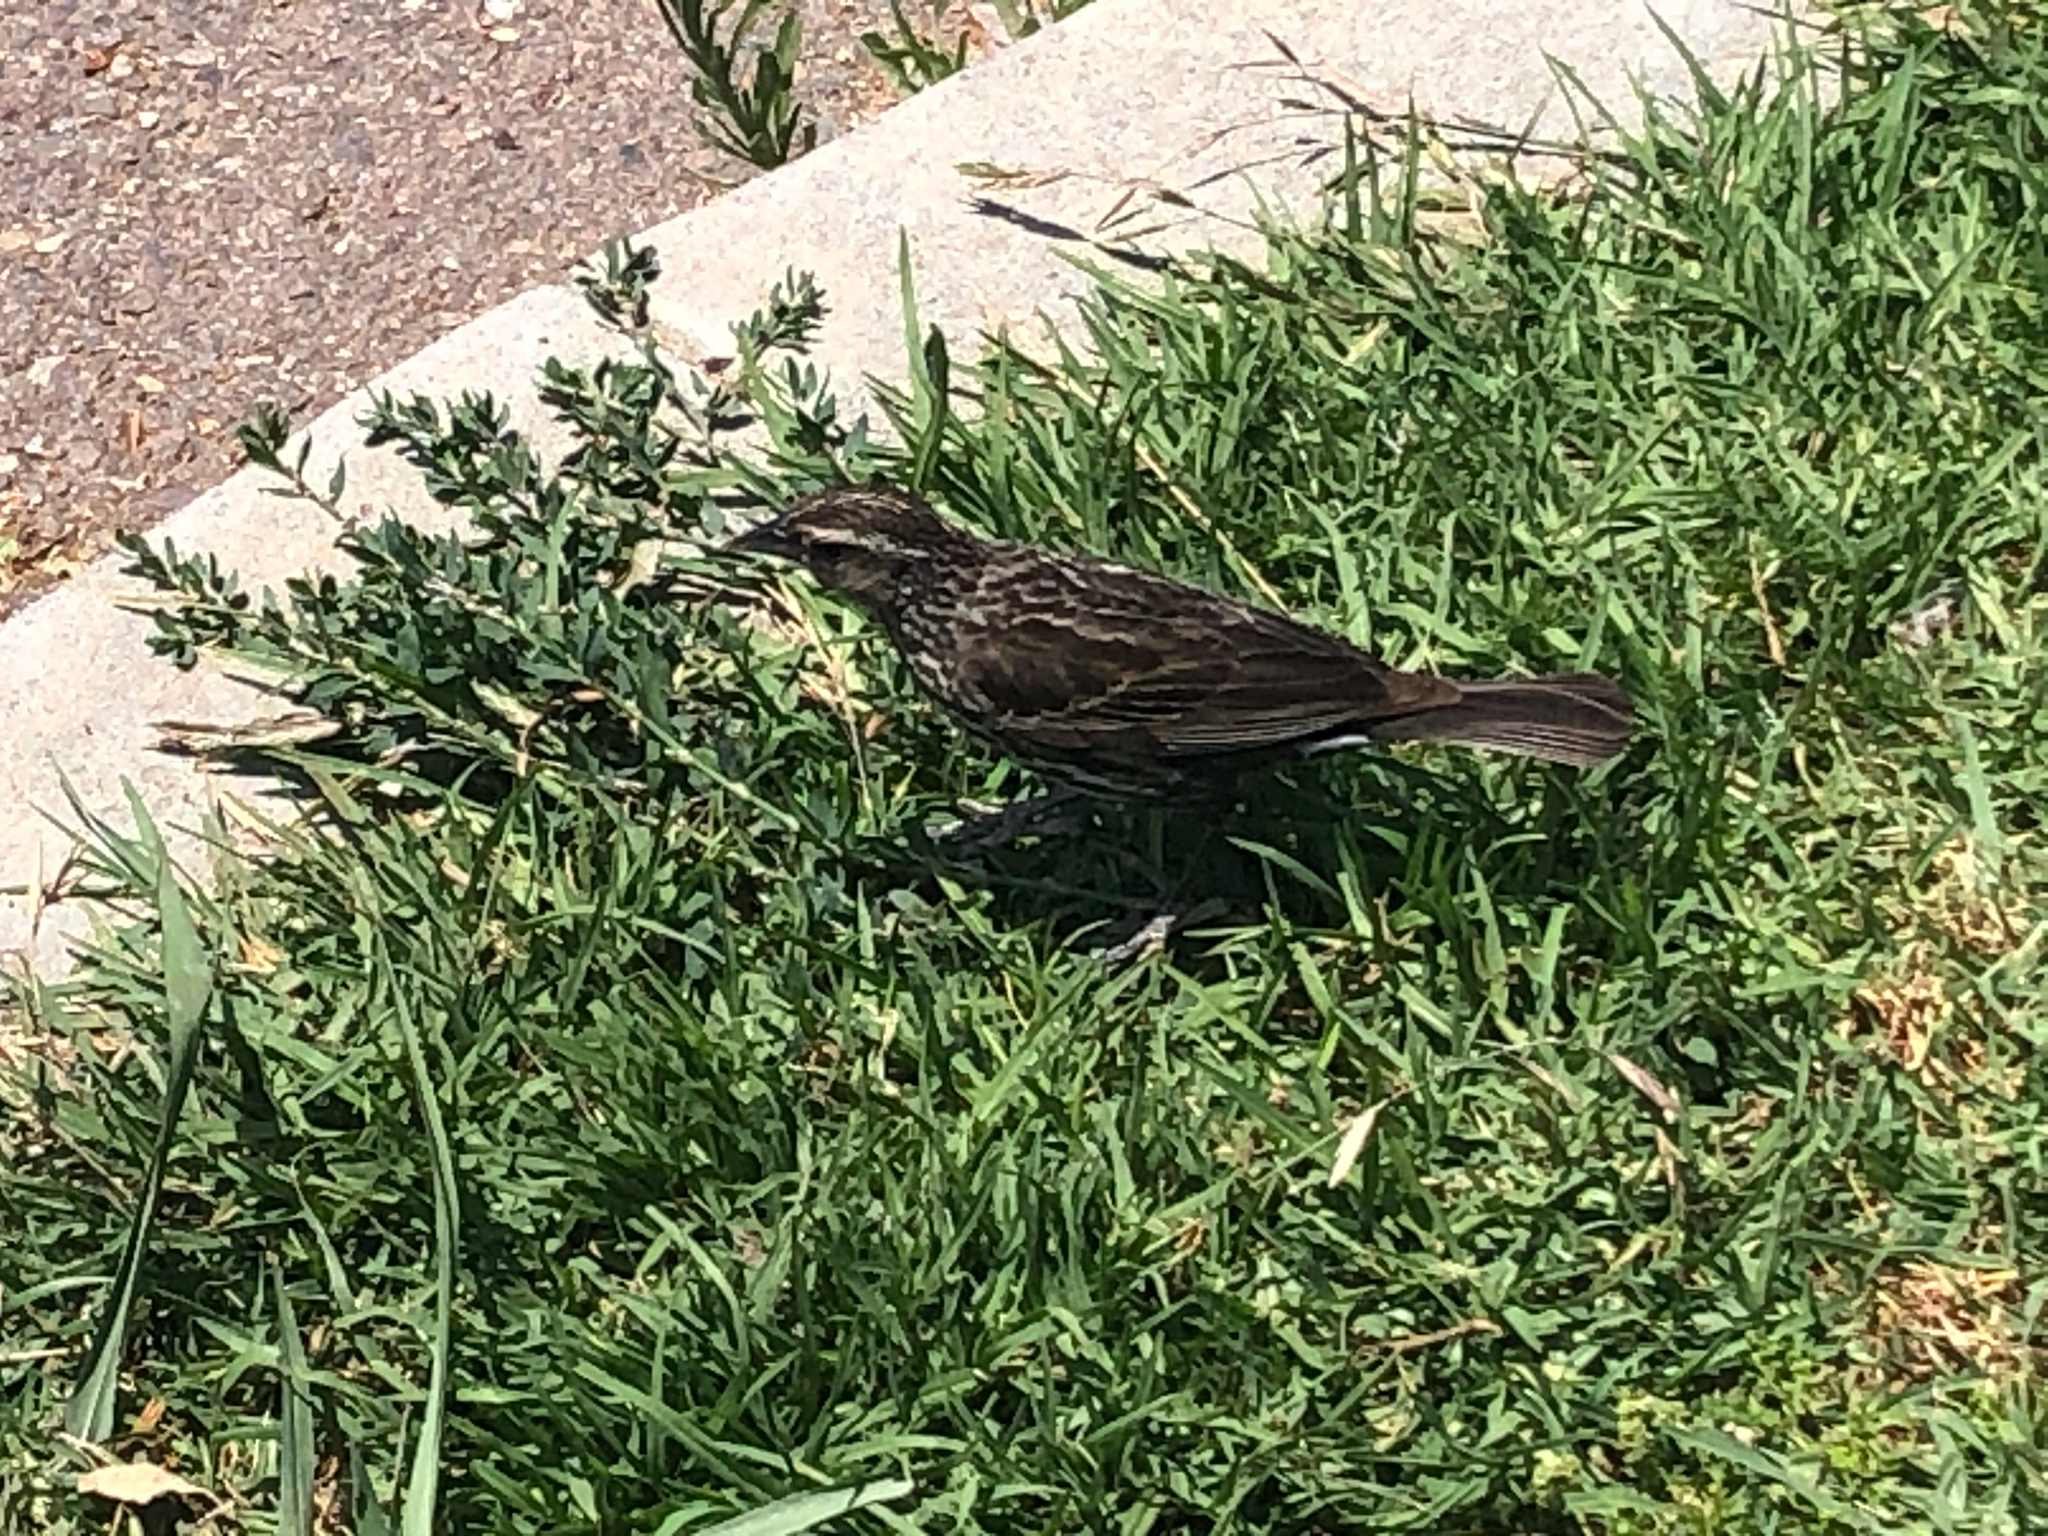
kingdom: Animalia
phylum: Chordata
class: Aves
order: Passeriformes
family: Icteridae
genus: Agelaius
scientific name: Agelaius phoeniceus
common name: Red-winged blackbird
